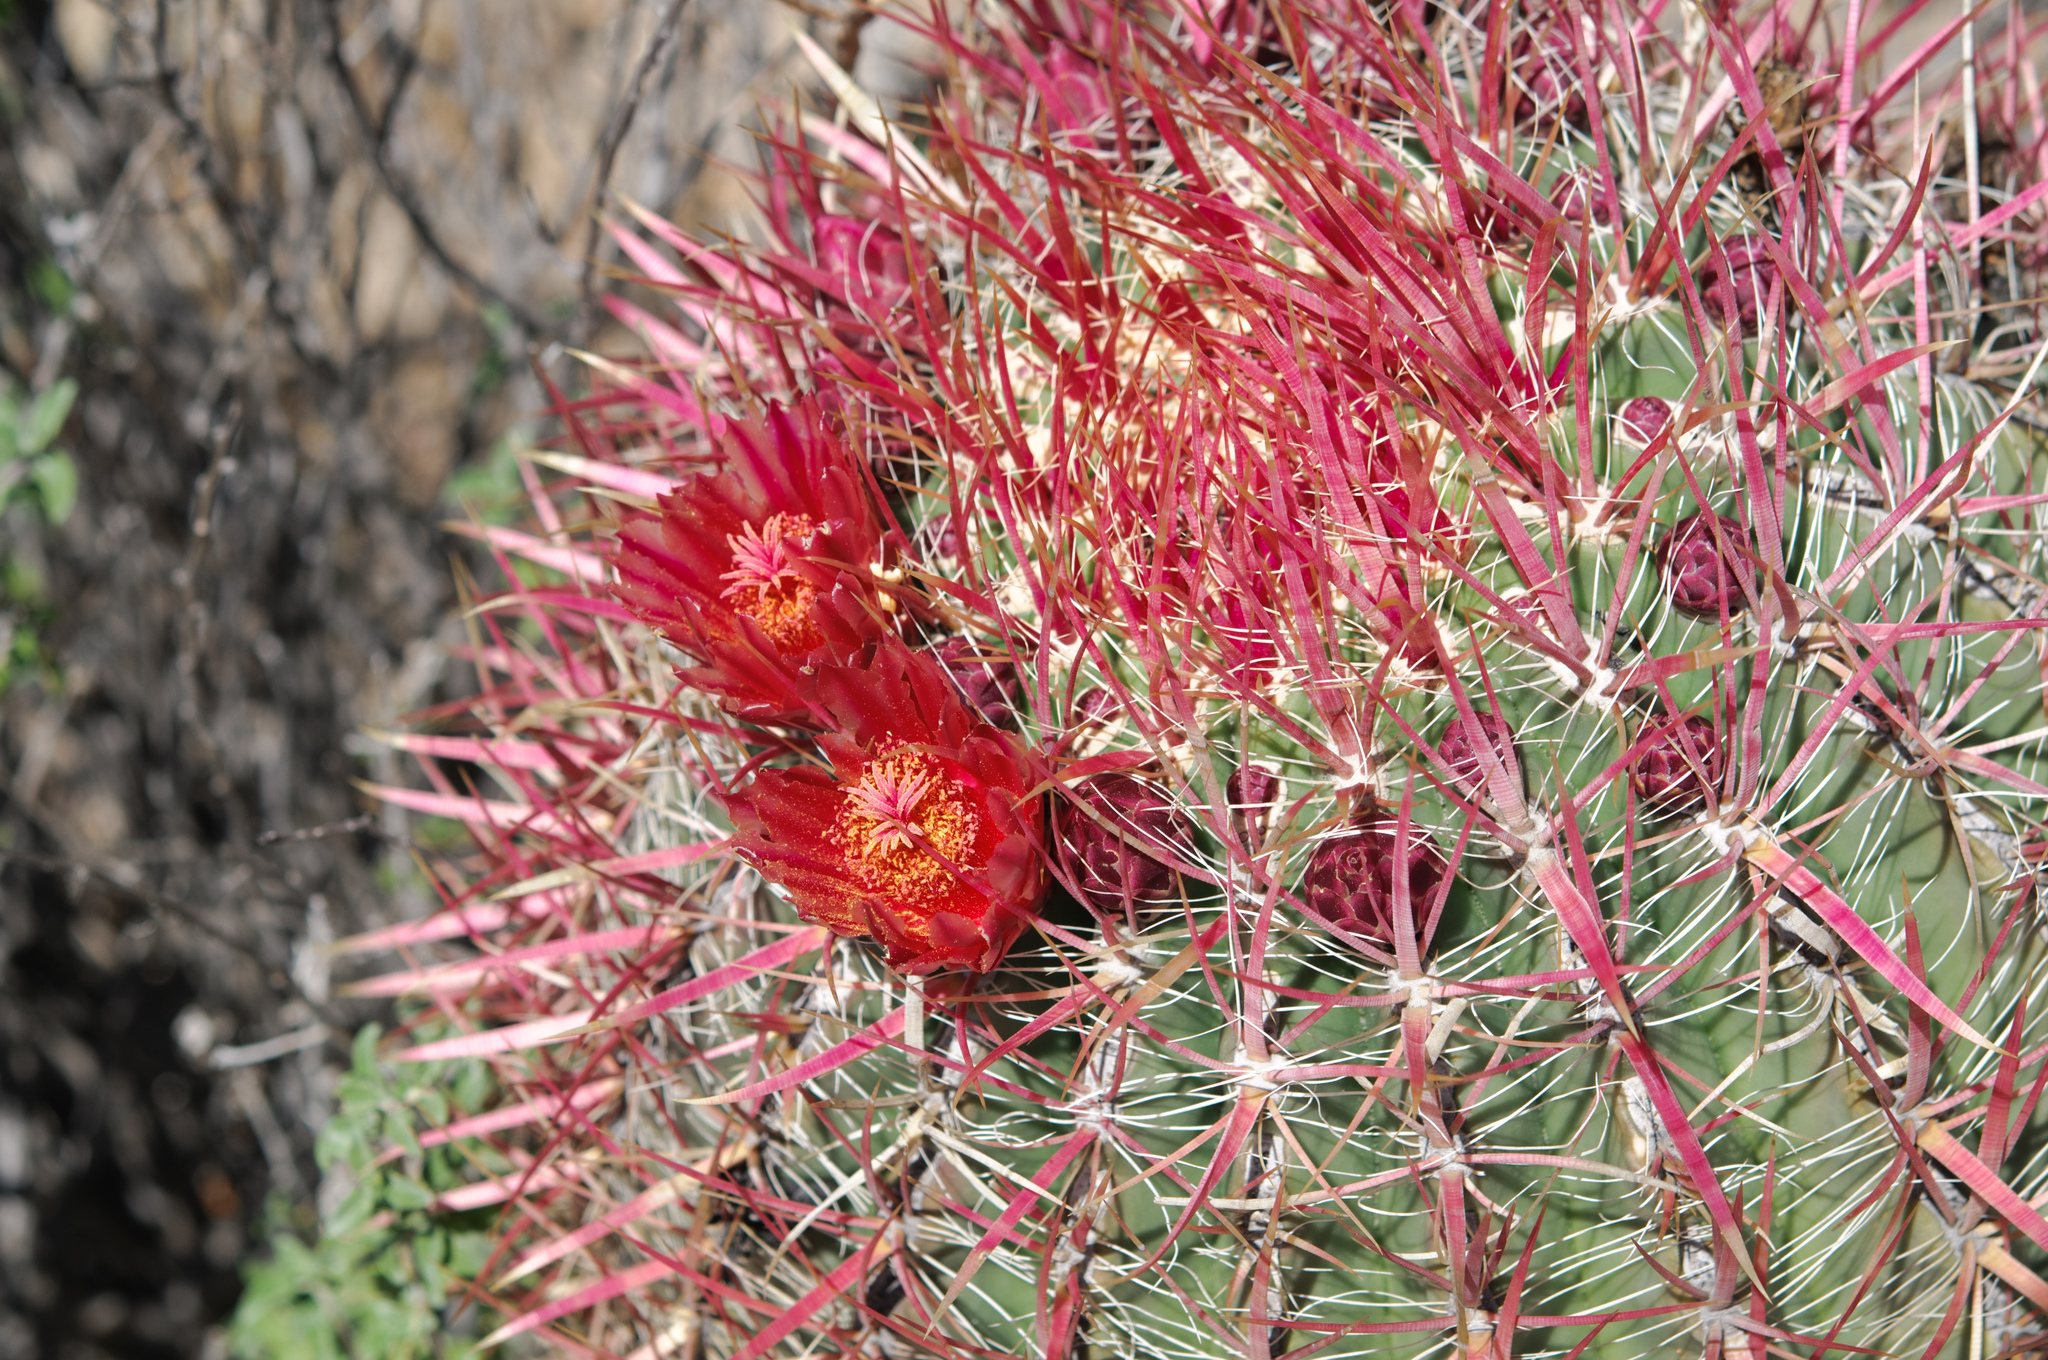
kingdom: Plantae
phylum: Tracheophyta
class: Magnoliopsida
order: Caryophyllales
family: Cactaceae
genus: Ferocactus
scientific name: Ferocactus gracilis
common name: Fire barrel cactus
